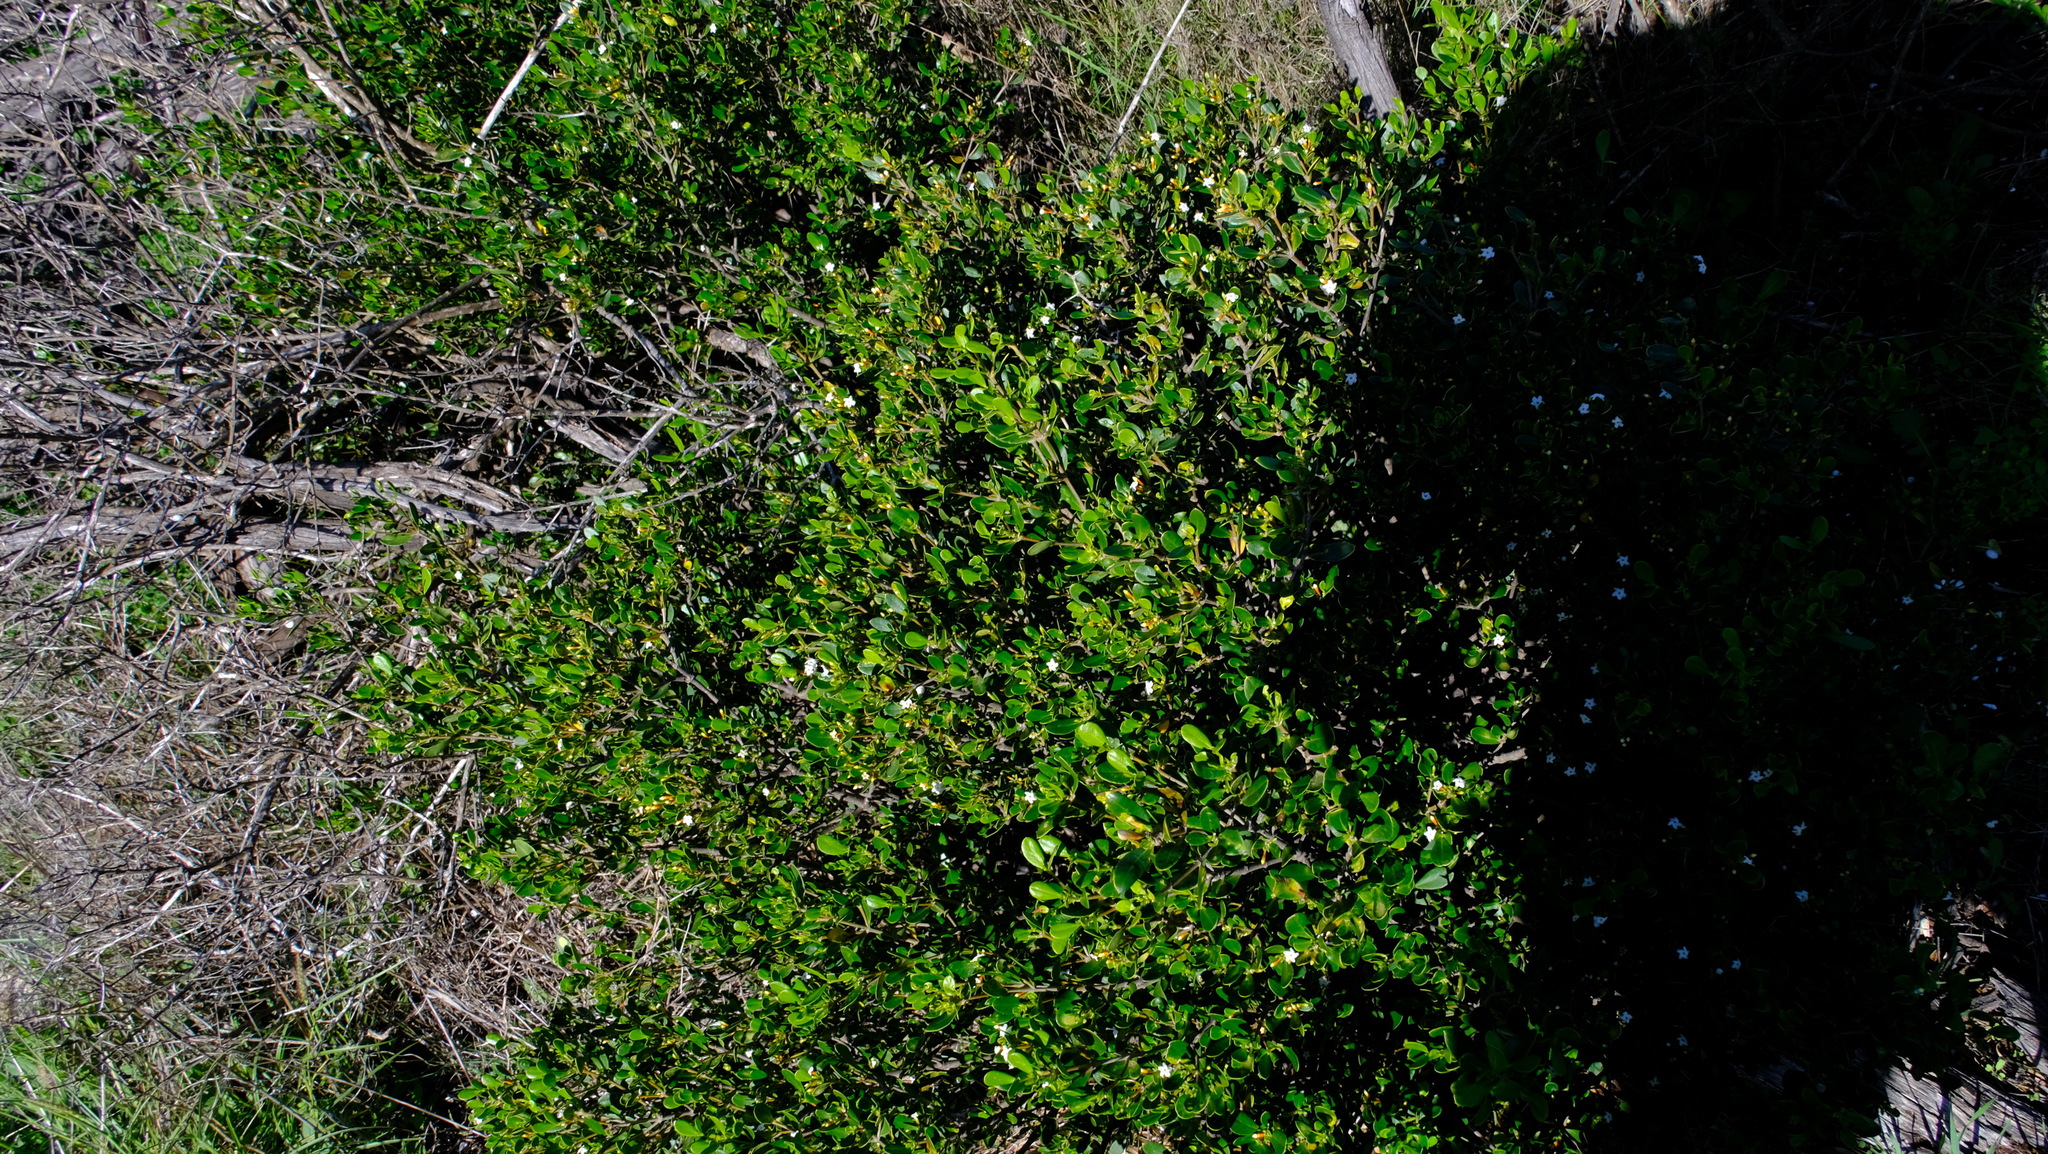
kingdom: Plantae
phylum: Tracheophyta
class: Magnoliopsida
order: Gentianales
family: Apocynaceae
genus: Alyxia
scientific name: Alyxia buxifolia
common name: Dysentery-bush
